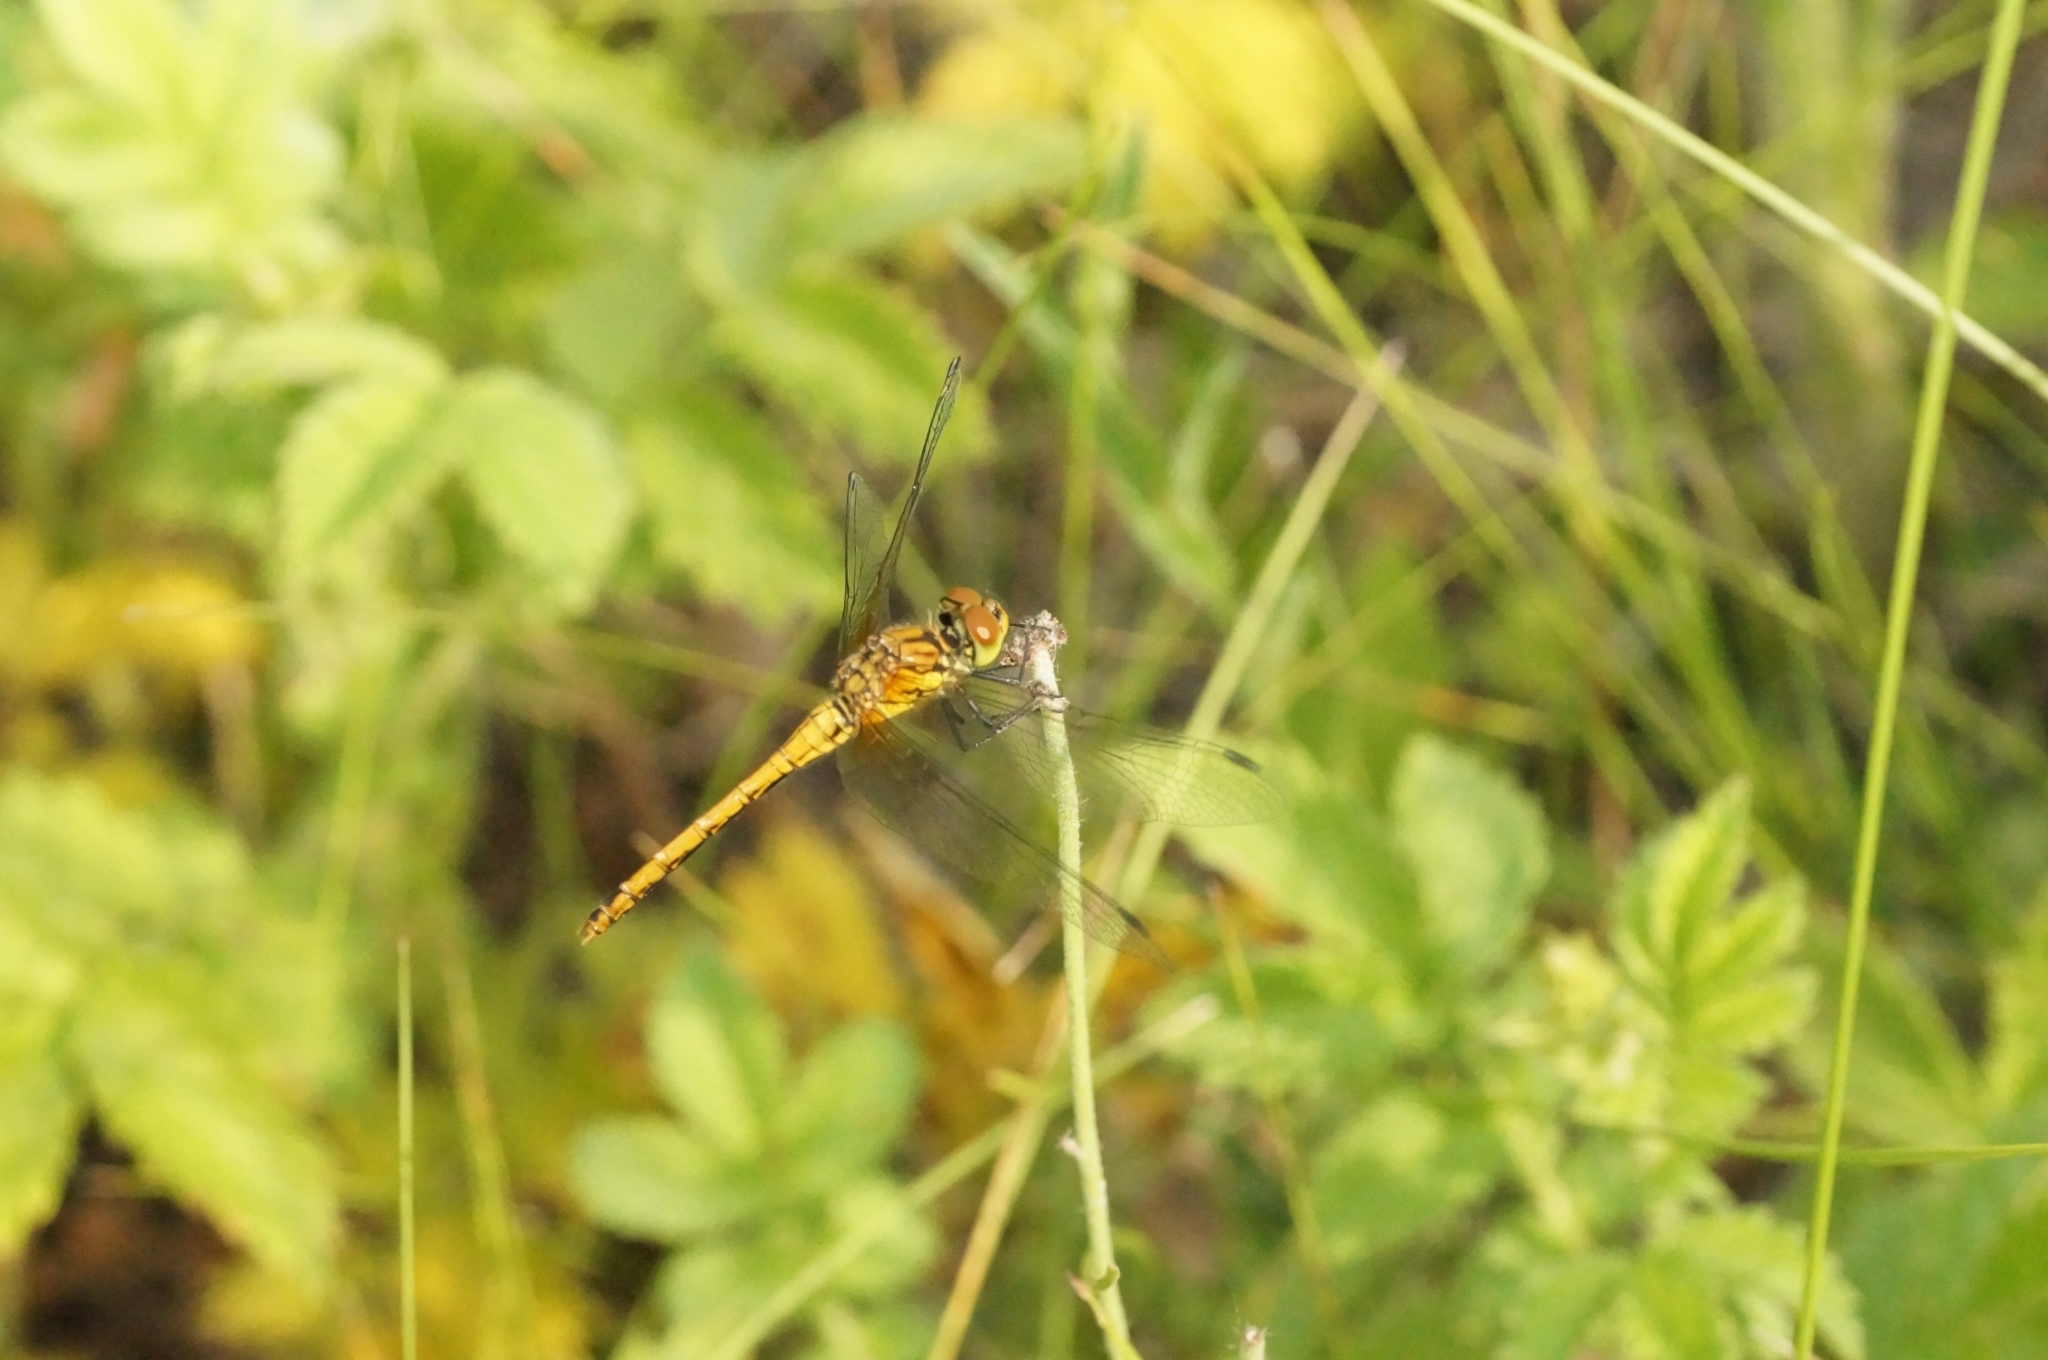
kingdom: Animalia
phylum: Arthropoda
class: Insecta
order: Odonata
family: Libellulidae
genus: Sympetrum
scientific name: Sympetrum sanguineum
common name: Ruddy darter
